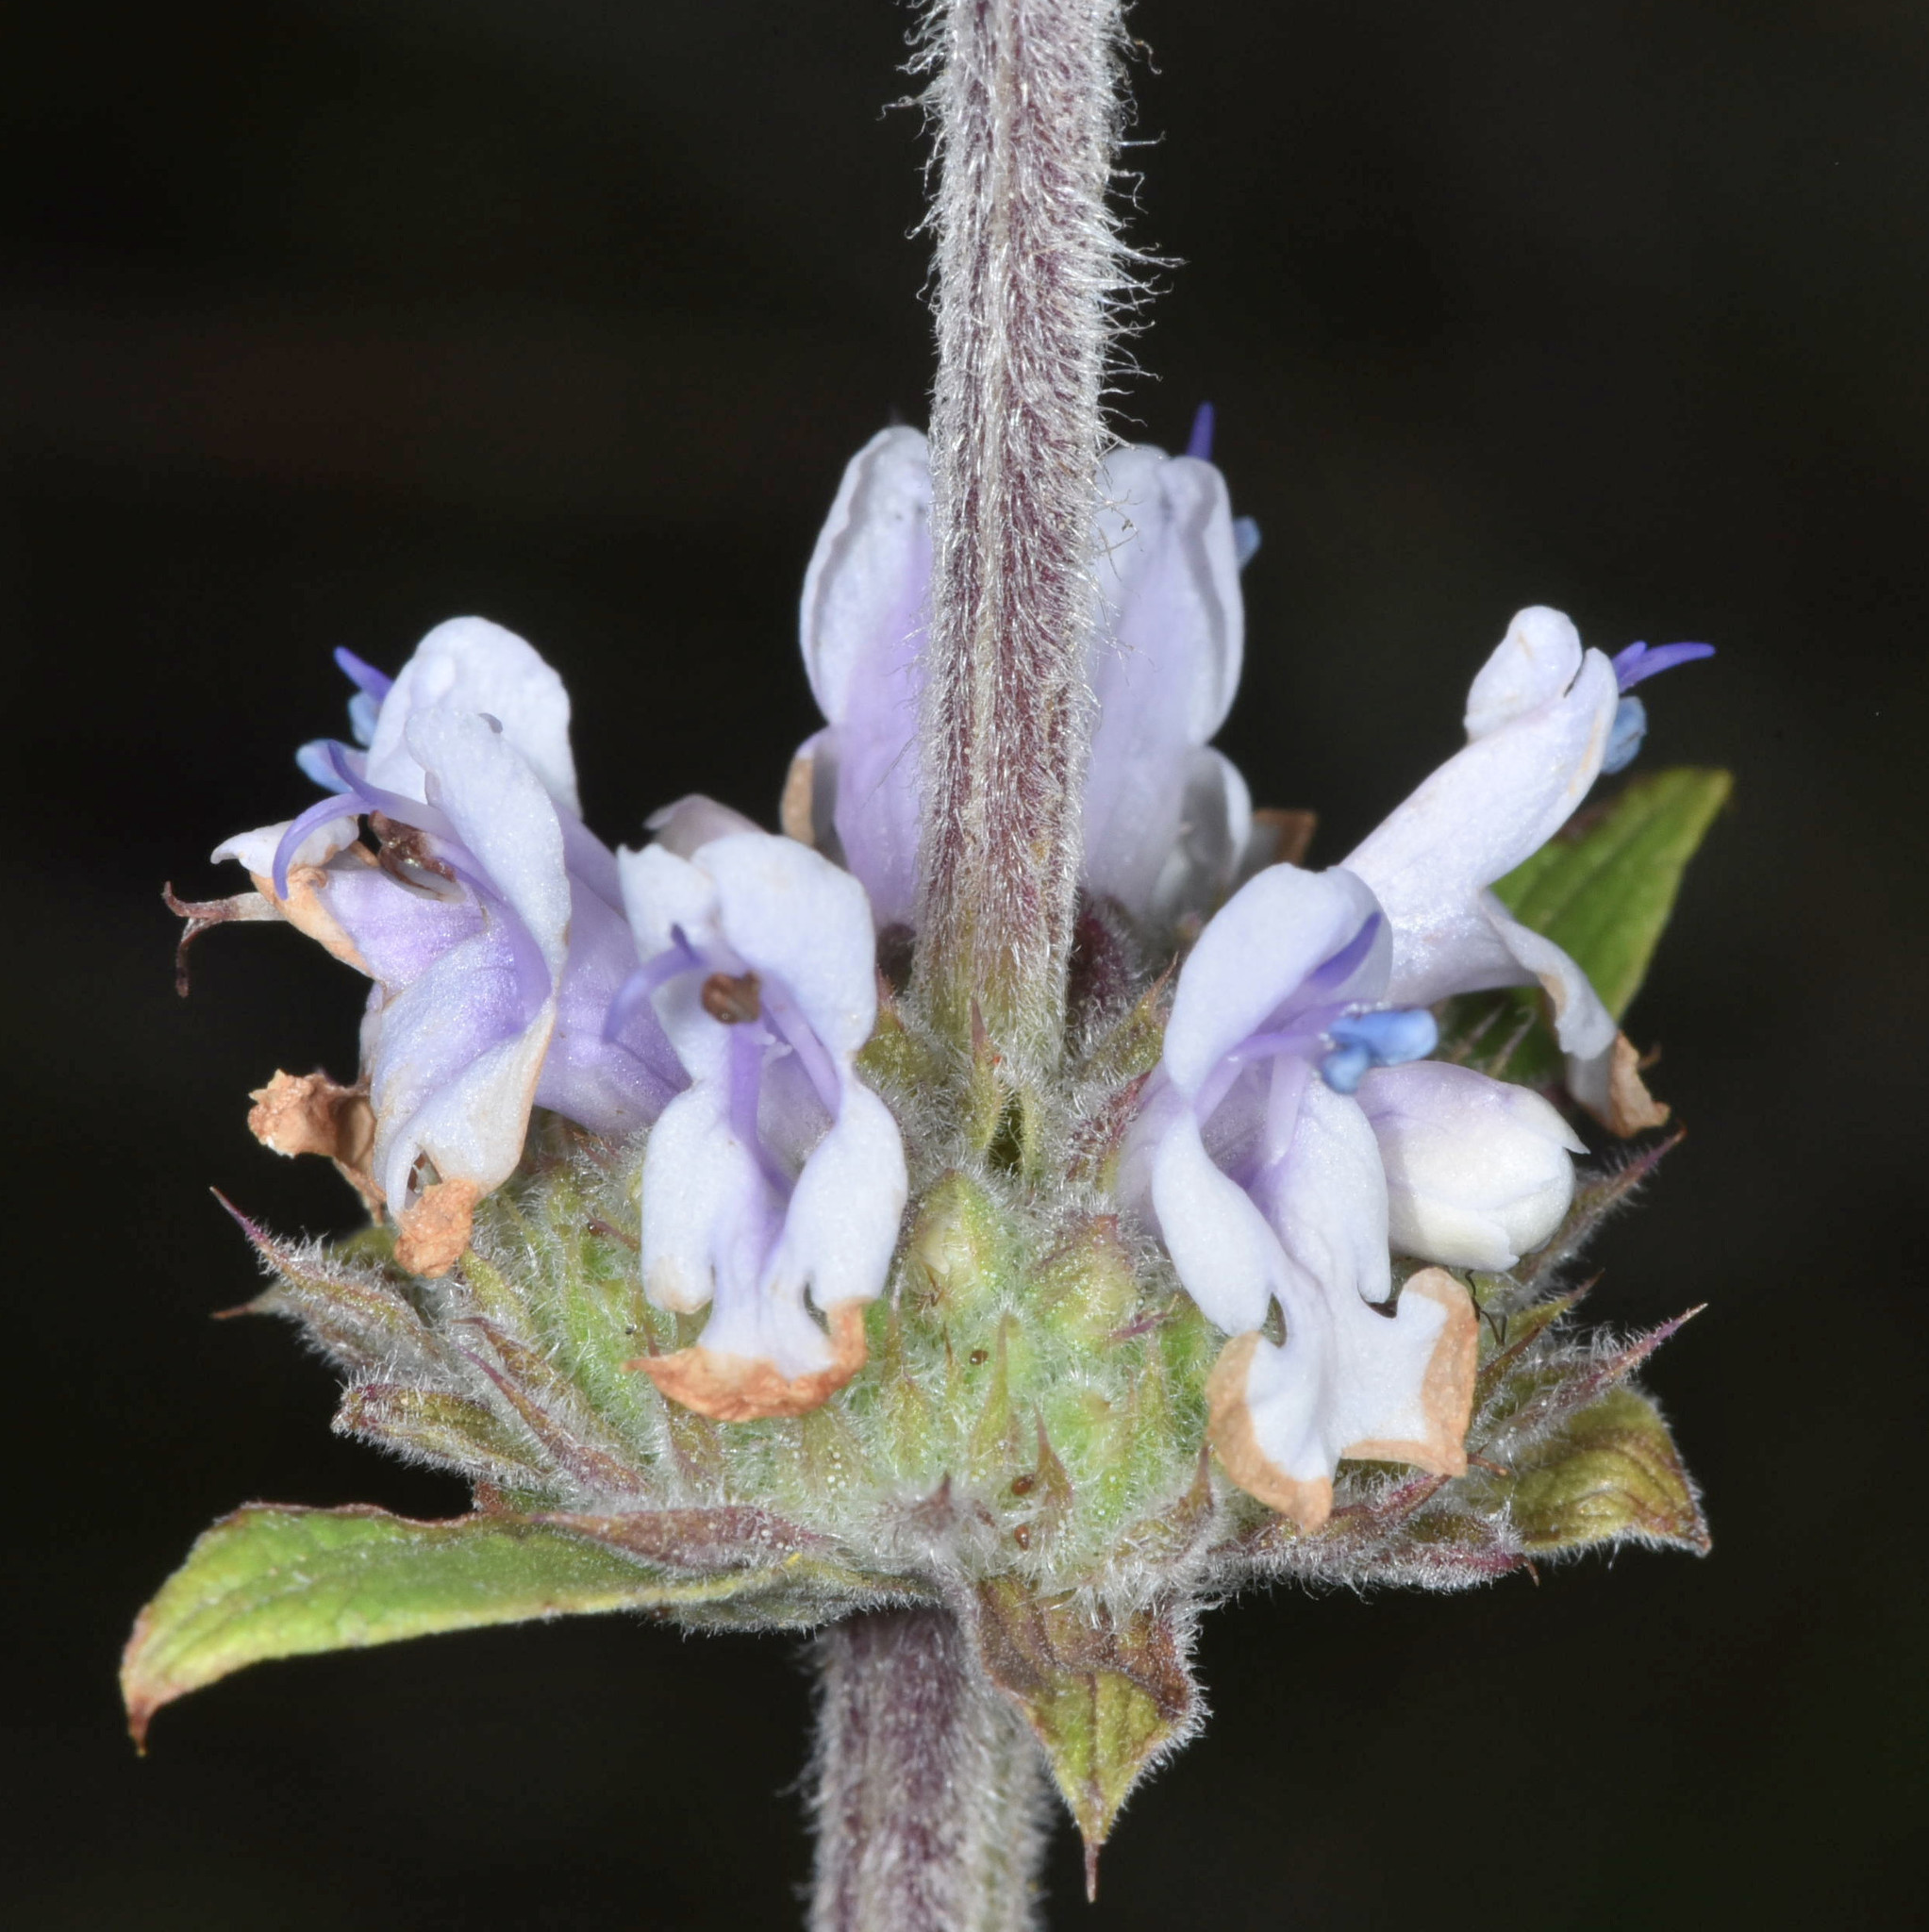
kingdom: Plantae
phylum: Tracheophyta
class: Magnoliopsida
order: Lamiales
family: Lamiaceae
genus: Salvia
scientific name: Salvia mellifera
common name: Black sage
